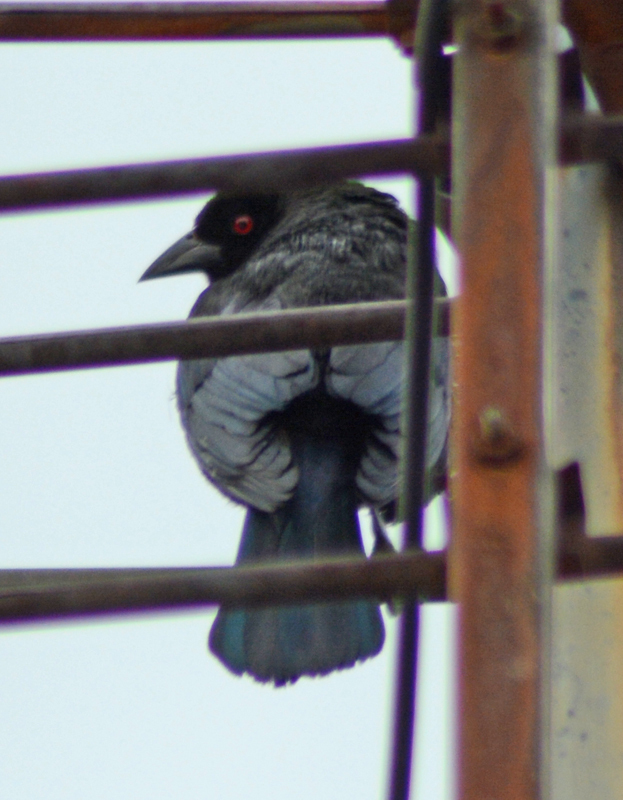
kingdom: Animalia
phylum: Chordata
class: Aves
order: Passeriformes
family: Icteridae
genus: Molothrus
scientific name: Molothrus aeneus
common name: Bronzed cowbird
